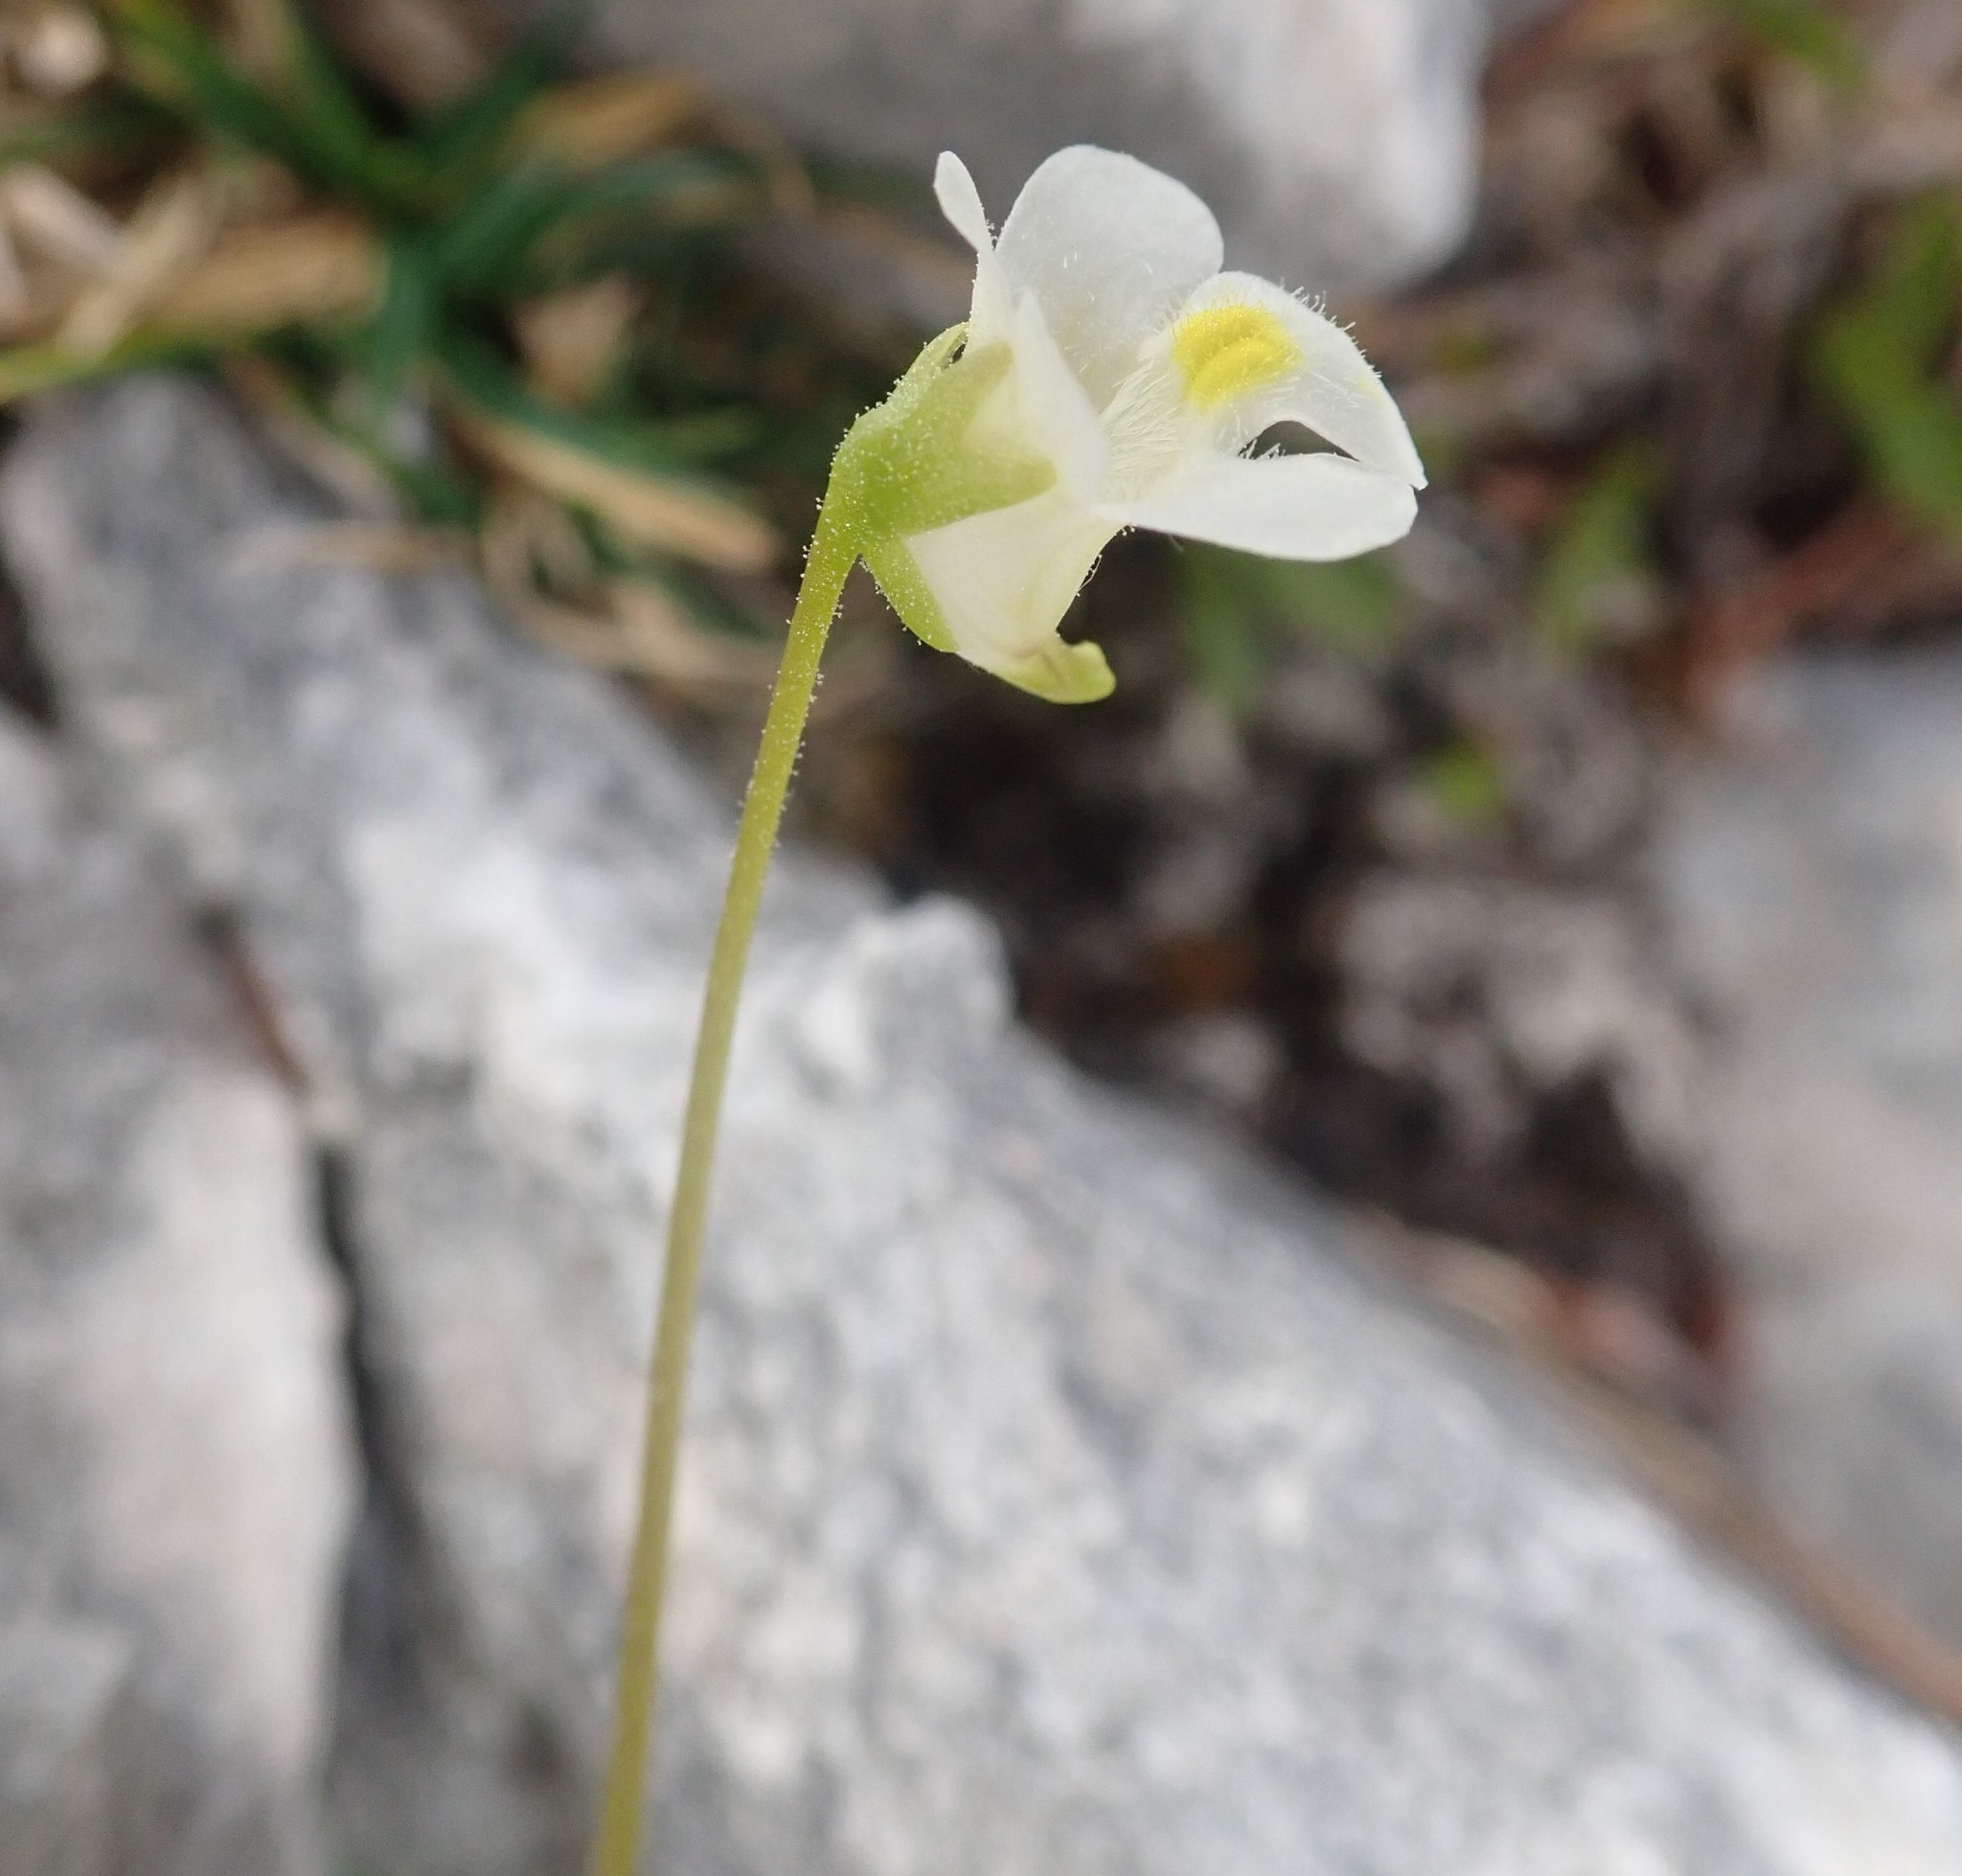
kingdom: Plantae
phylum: Tracheophyta
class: Magnoliopsida
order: Lamiales
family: Lentibulariaceae
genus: Pinguicula
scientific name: Pinguicula alpina
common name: Alpine butterwort
